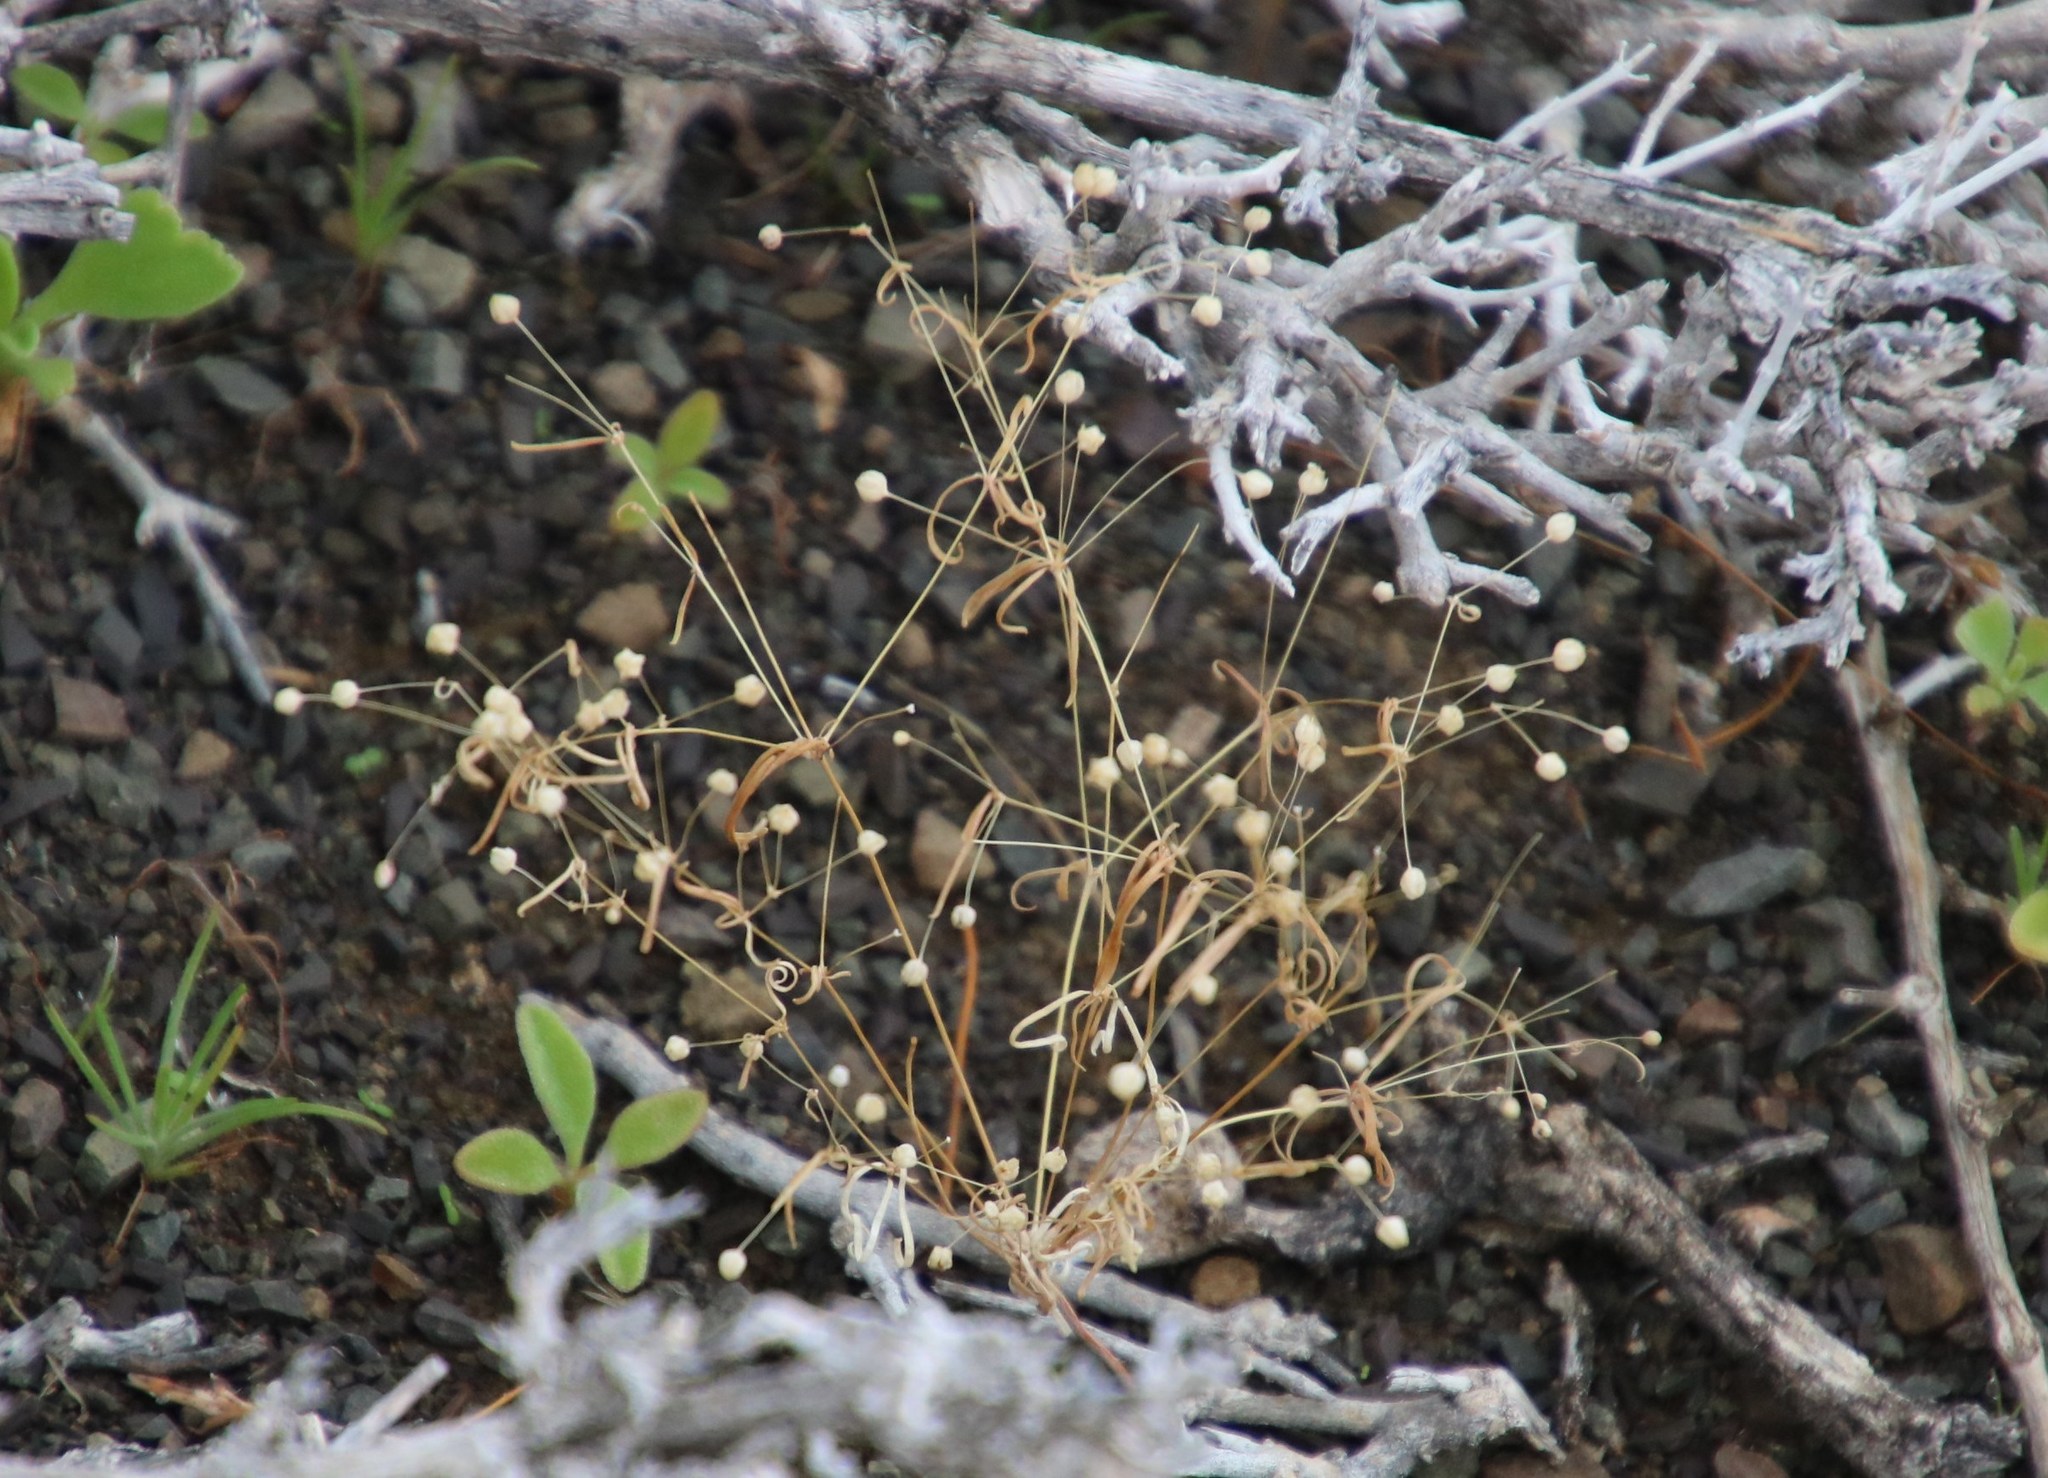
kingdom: Plantae
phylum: Tracheophyta
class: Magnoliopsida
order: Caryophyllales
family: Molluginaceae
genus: Hypertelis
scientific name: Hypertelis cerviana
